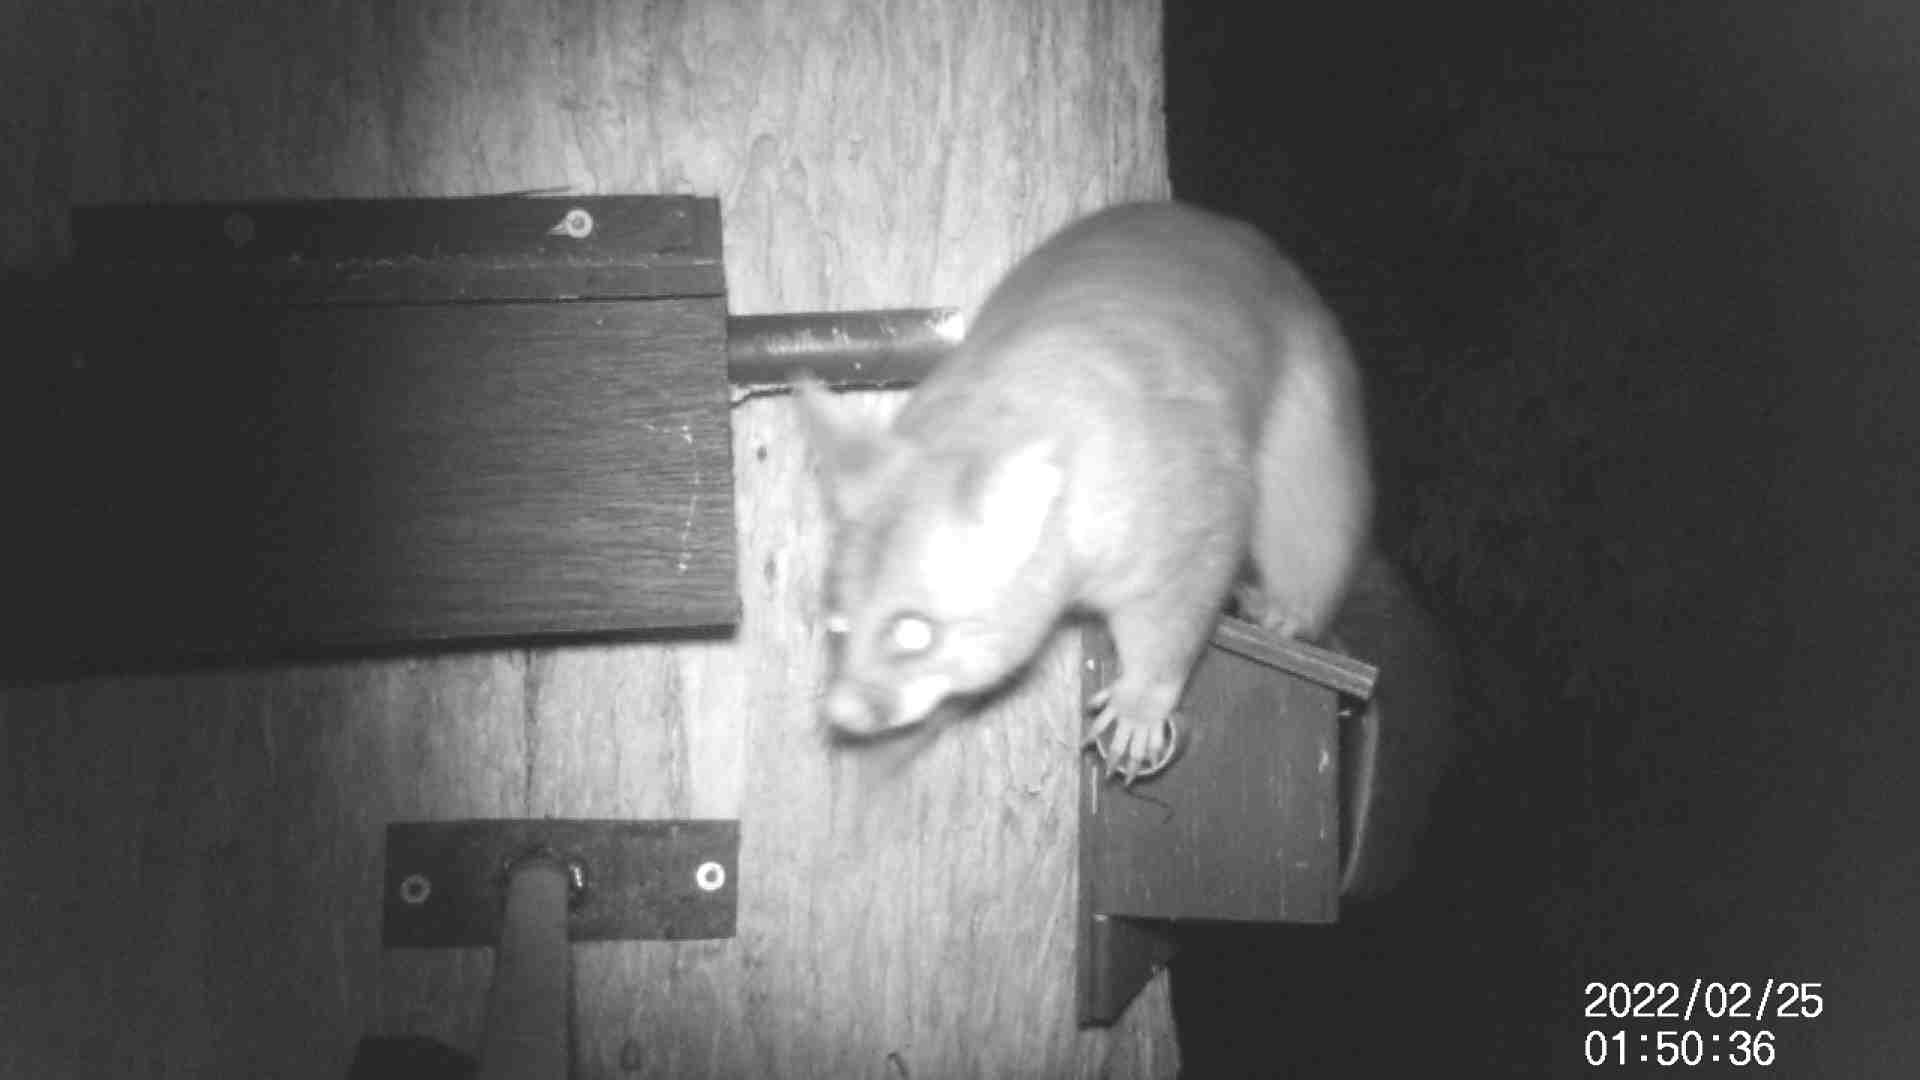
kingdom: Animalia
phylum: Chordata
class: Mammalia
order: Diprotodontia
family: Phalangeridae
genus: Trichosurus
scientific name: Trichosurus vulpecula
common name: Common brushtail
